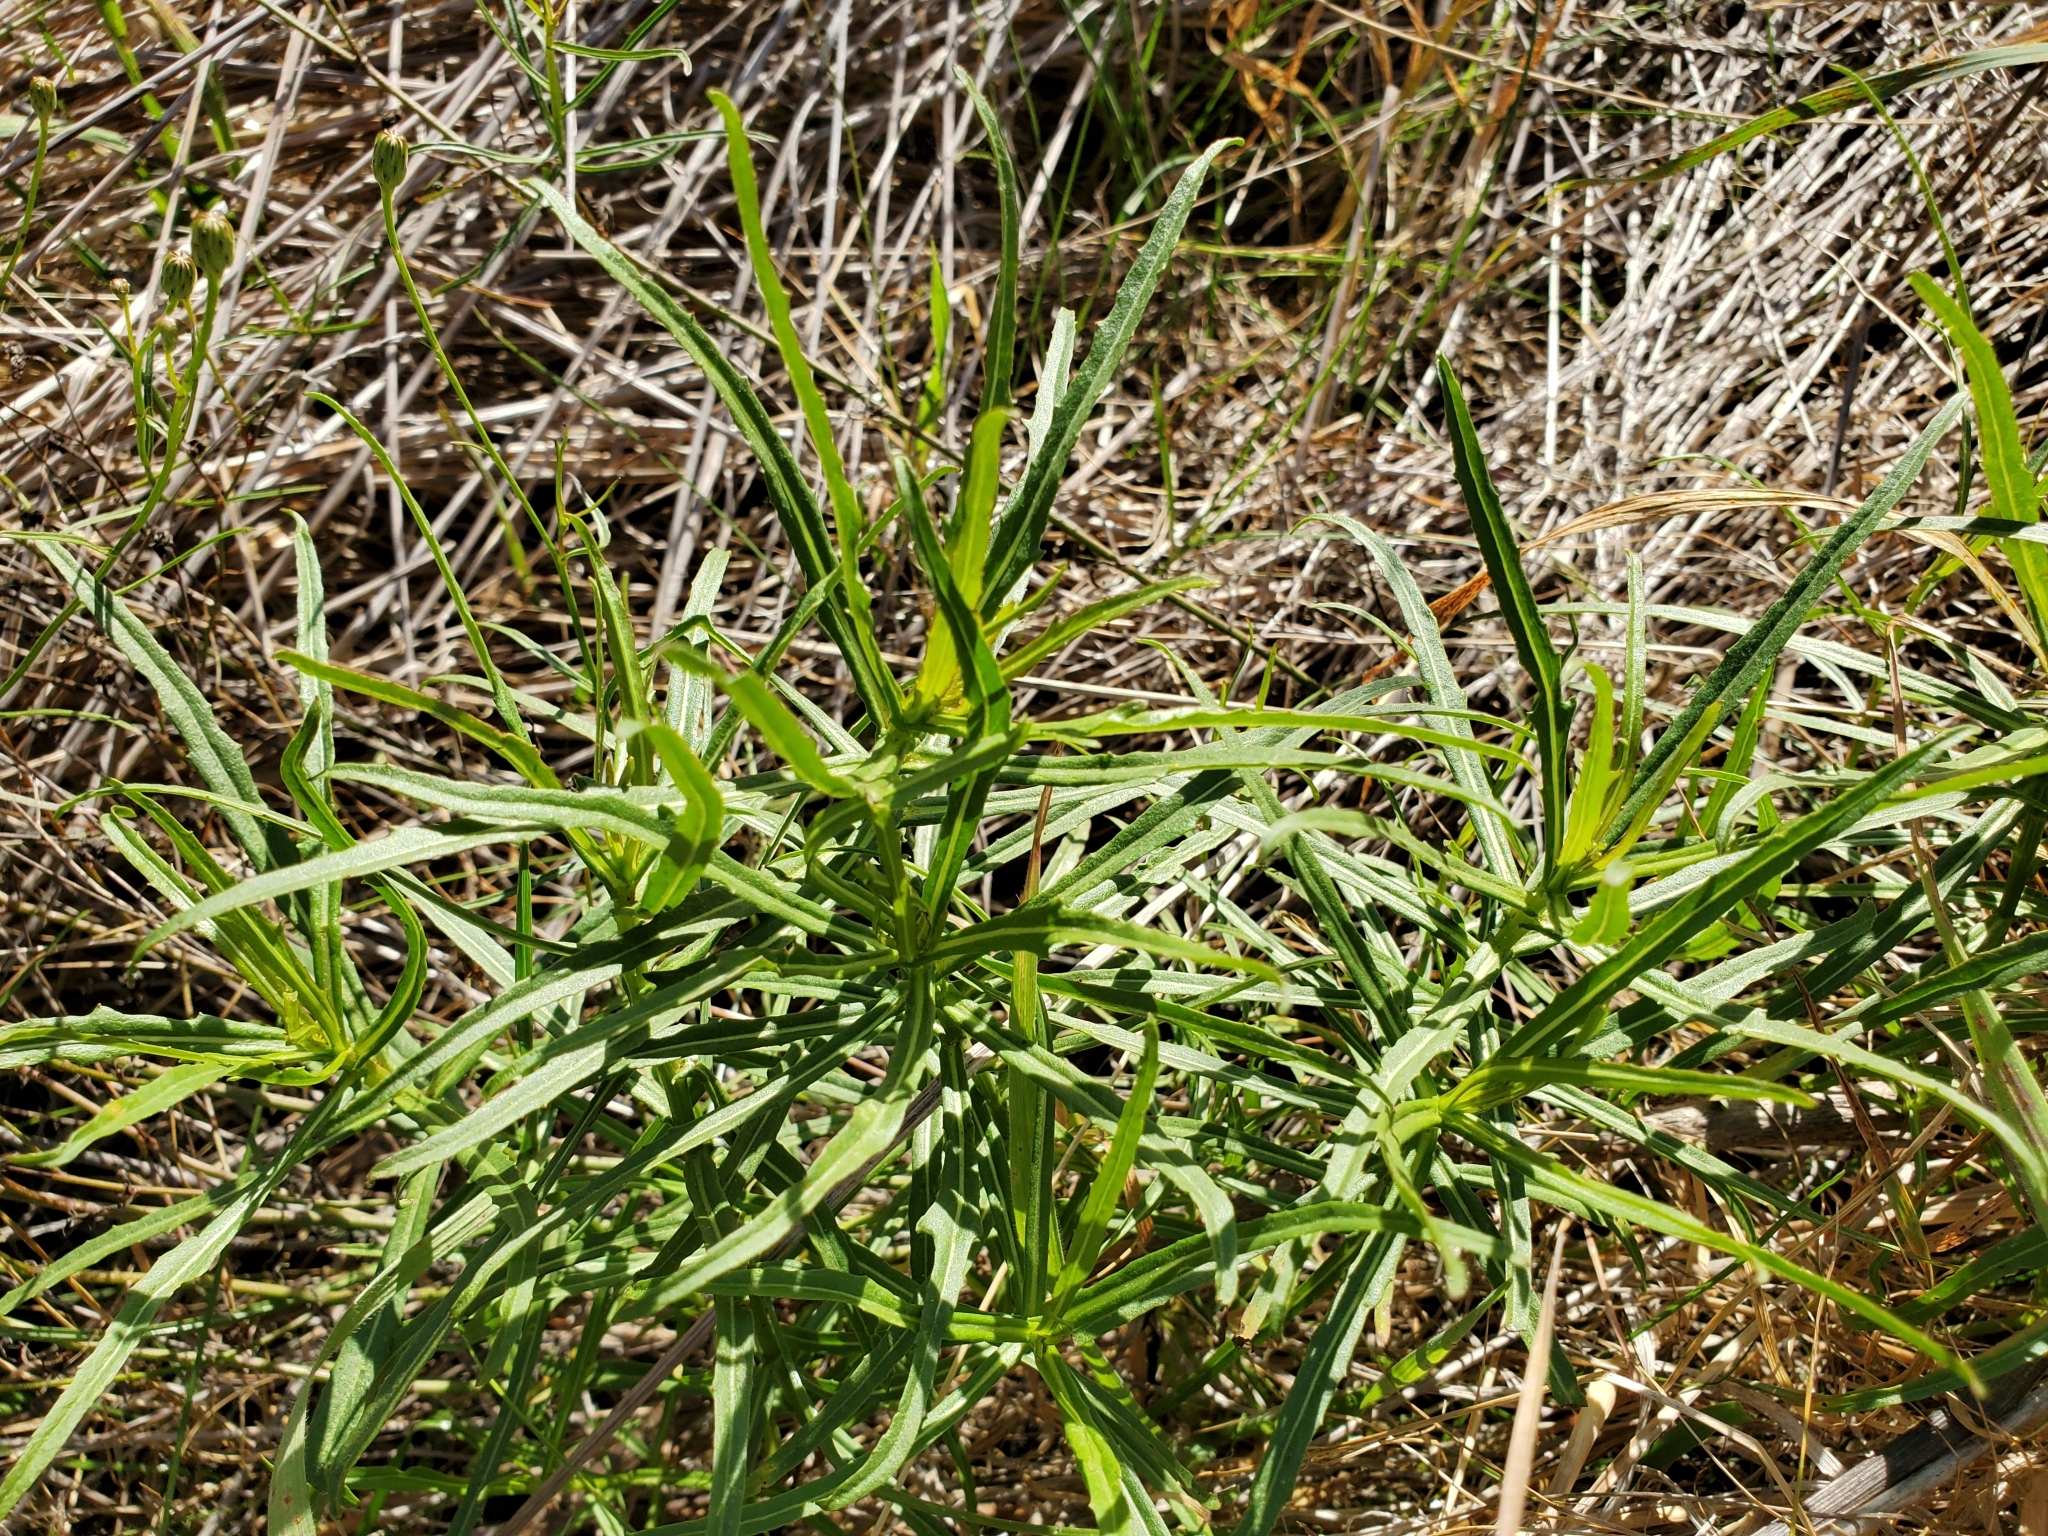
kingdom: Plantae
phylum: Tracheophyta
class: Magnoliopsida
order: Asterales
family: Asteraceae
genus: Malacothrix
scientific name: Malacothrix saxatilis
